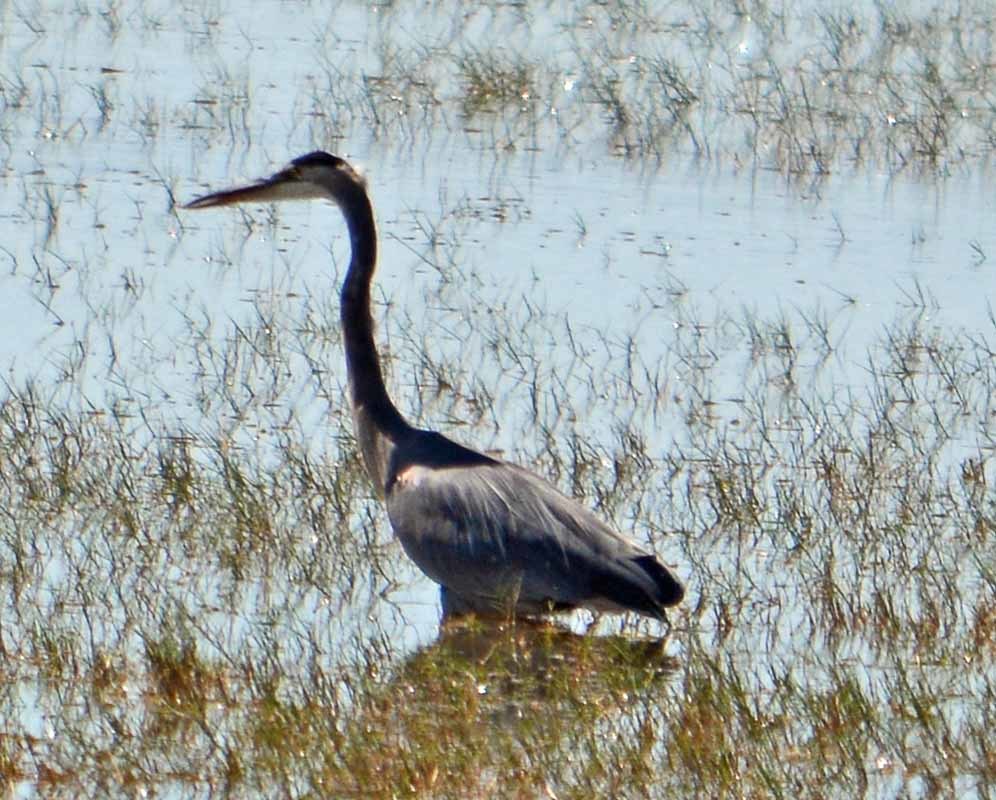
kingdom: Animalia
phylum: Chordata
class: Aves
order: Pelecaniformes
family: Ardeidae
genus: Ardea
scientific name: Ardea herodias
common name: Great blue heron
